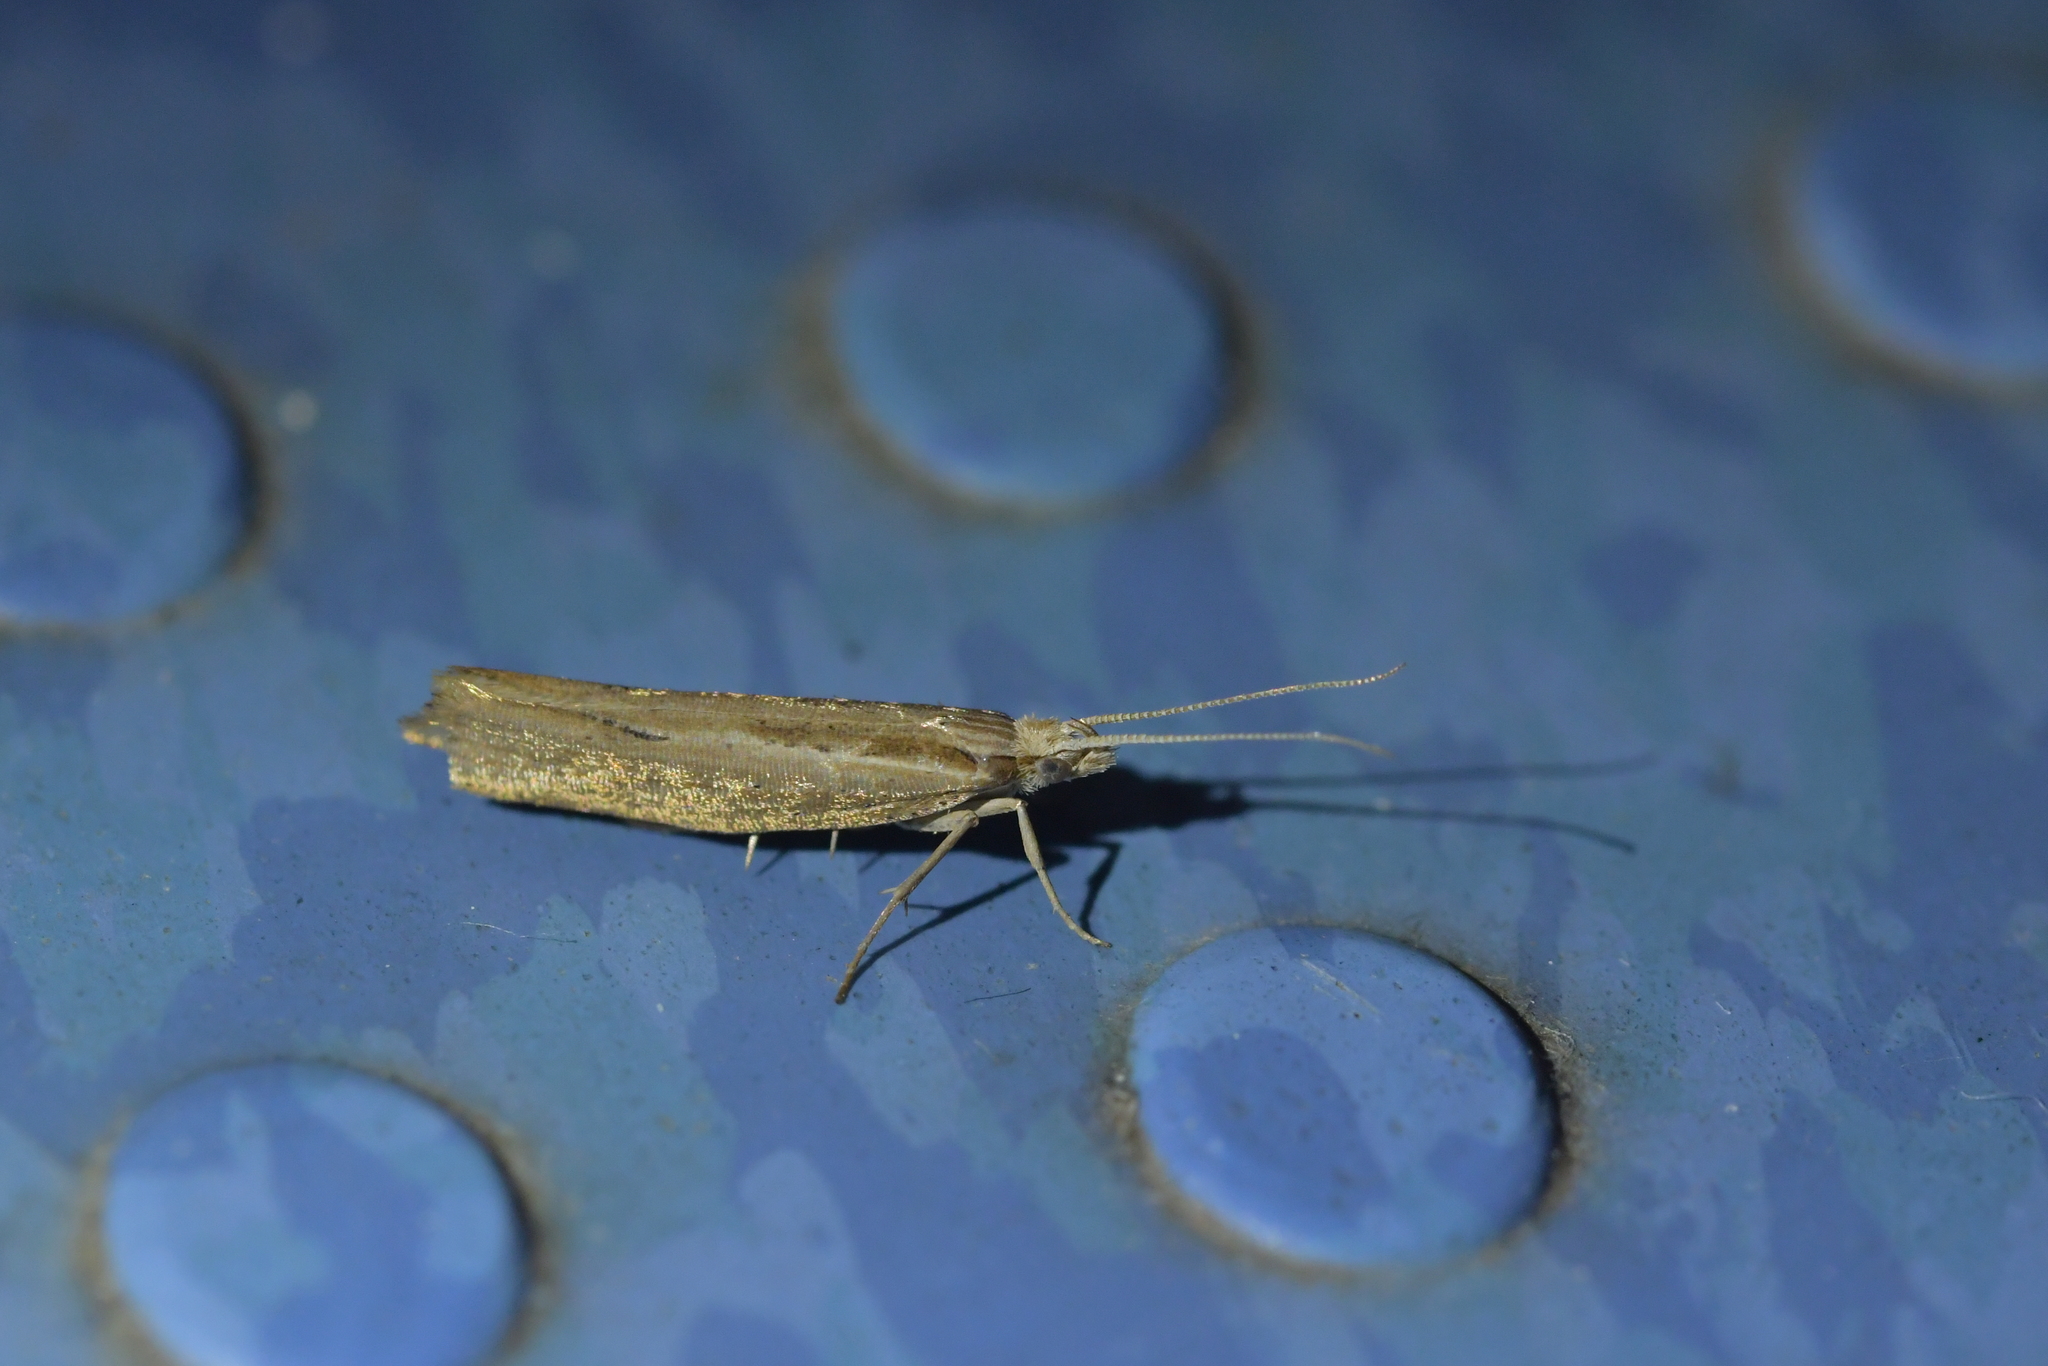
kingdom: Animalia
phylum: Arthropoda
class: Insecta
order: Lepidoptera
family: Plutellidae
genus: Plutella
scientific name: Plutella
